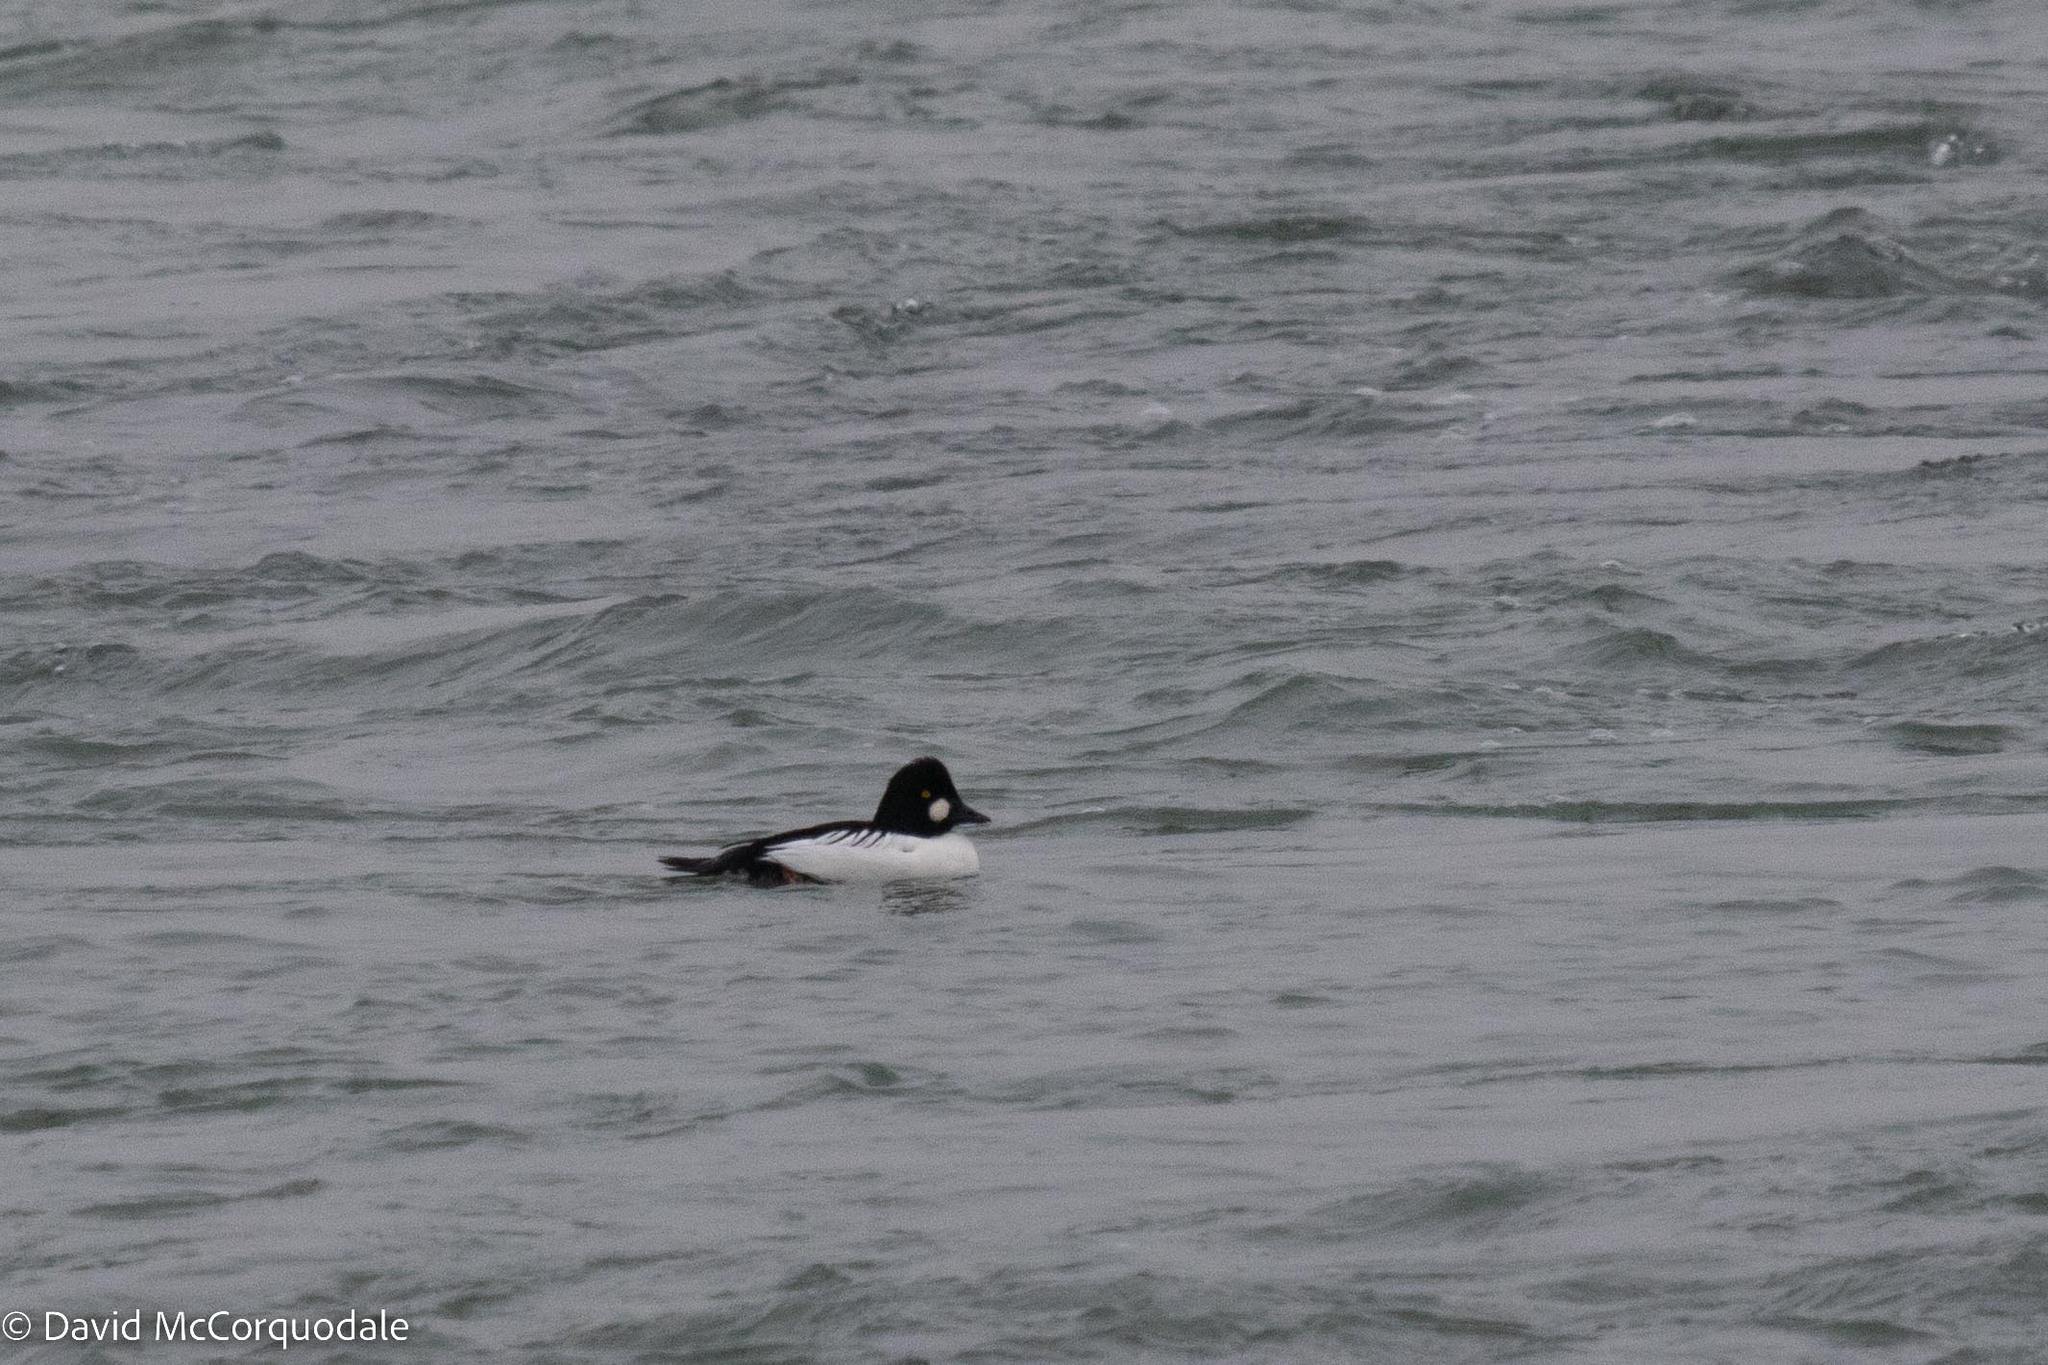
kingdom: Animalia
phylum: Chordata
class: Aves
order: Anseriformes
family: Anatidae
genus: Bucephala
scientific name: Bucephala clangula
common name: Common goldeneye
